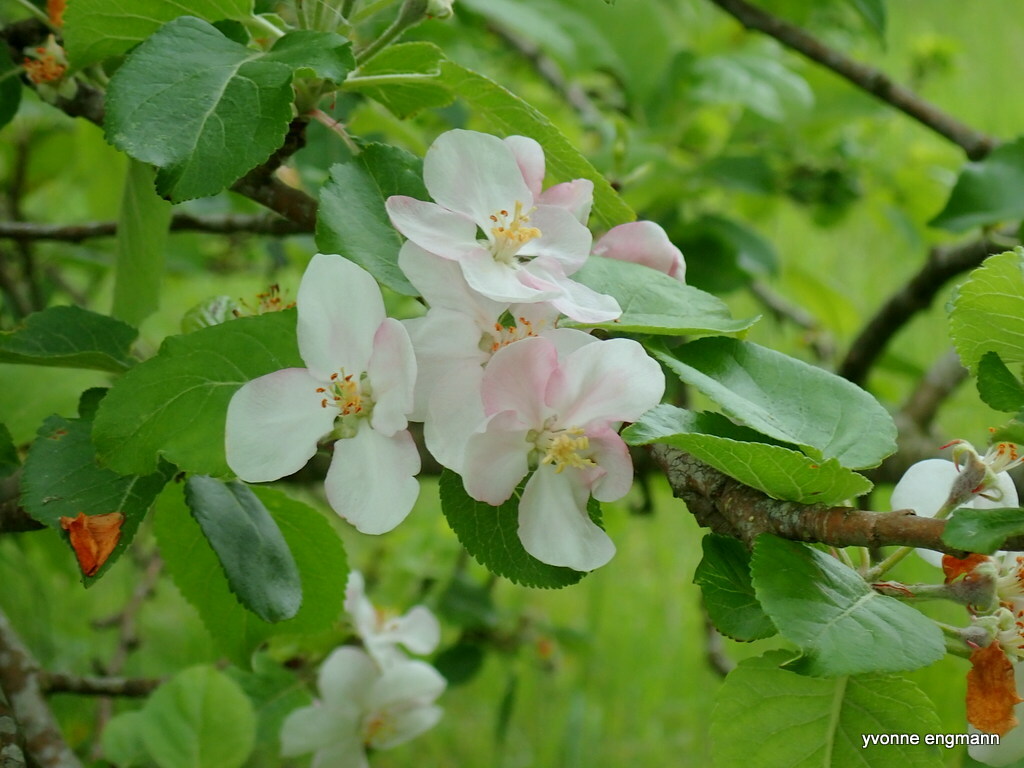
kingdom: Plantae
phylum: Tracheophyta
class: Magnoliopsida
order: Rosales
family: Rosaceae
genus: Malus
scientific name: Malus domestica
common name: Apple
